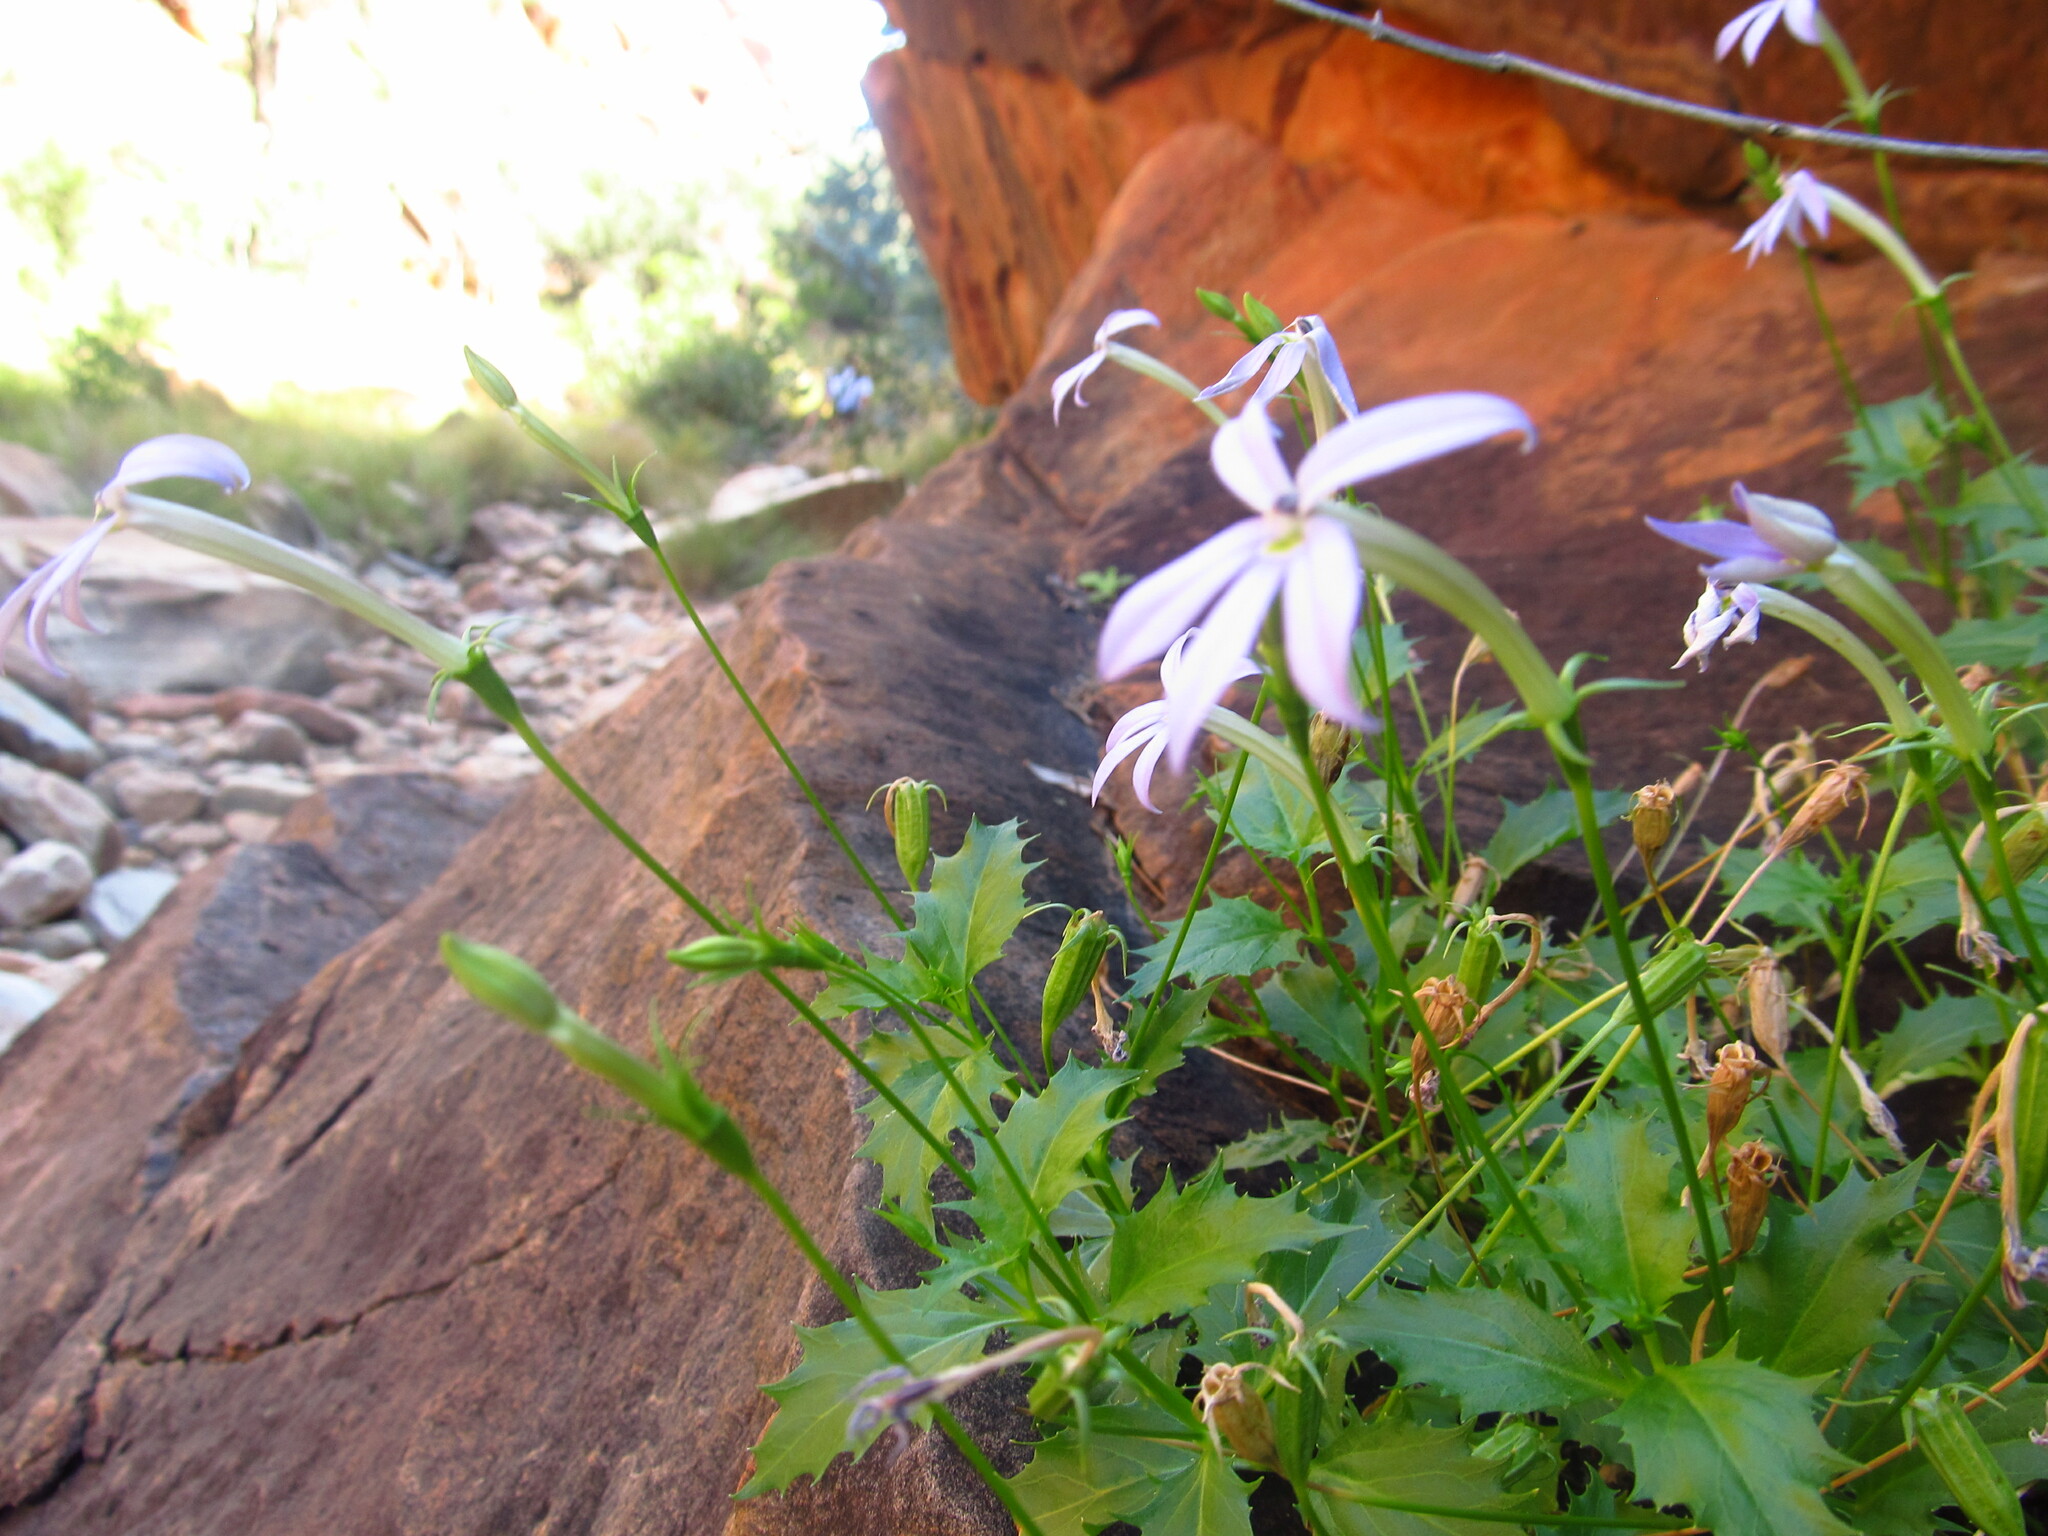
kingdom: Plantae
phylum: Tracheophyta
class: Magnoliopsida
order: Asterales
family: Campanulaceae
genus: Lithotoma
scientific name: Lithotoma petraea
